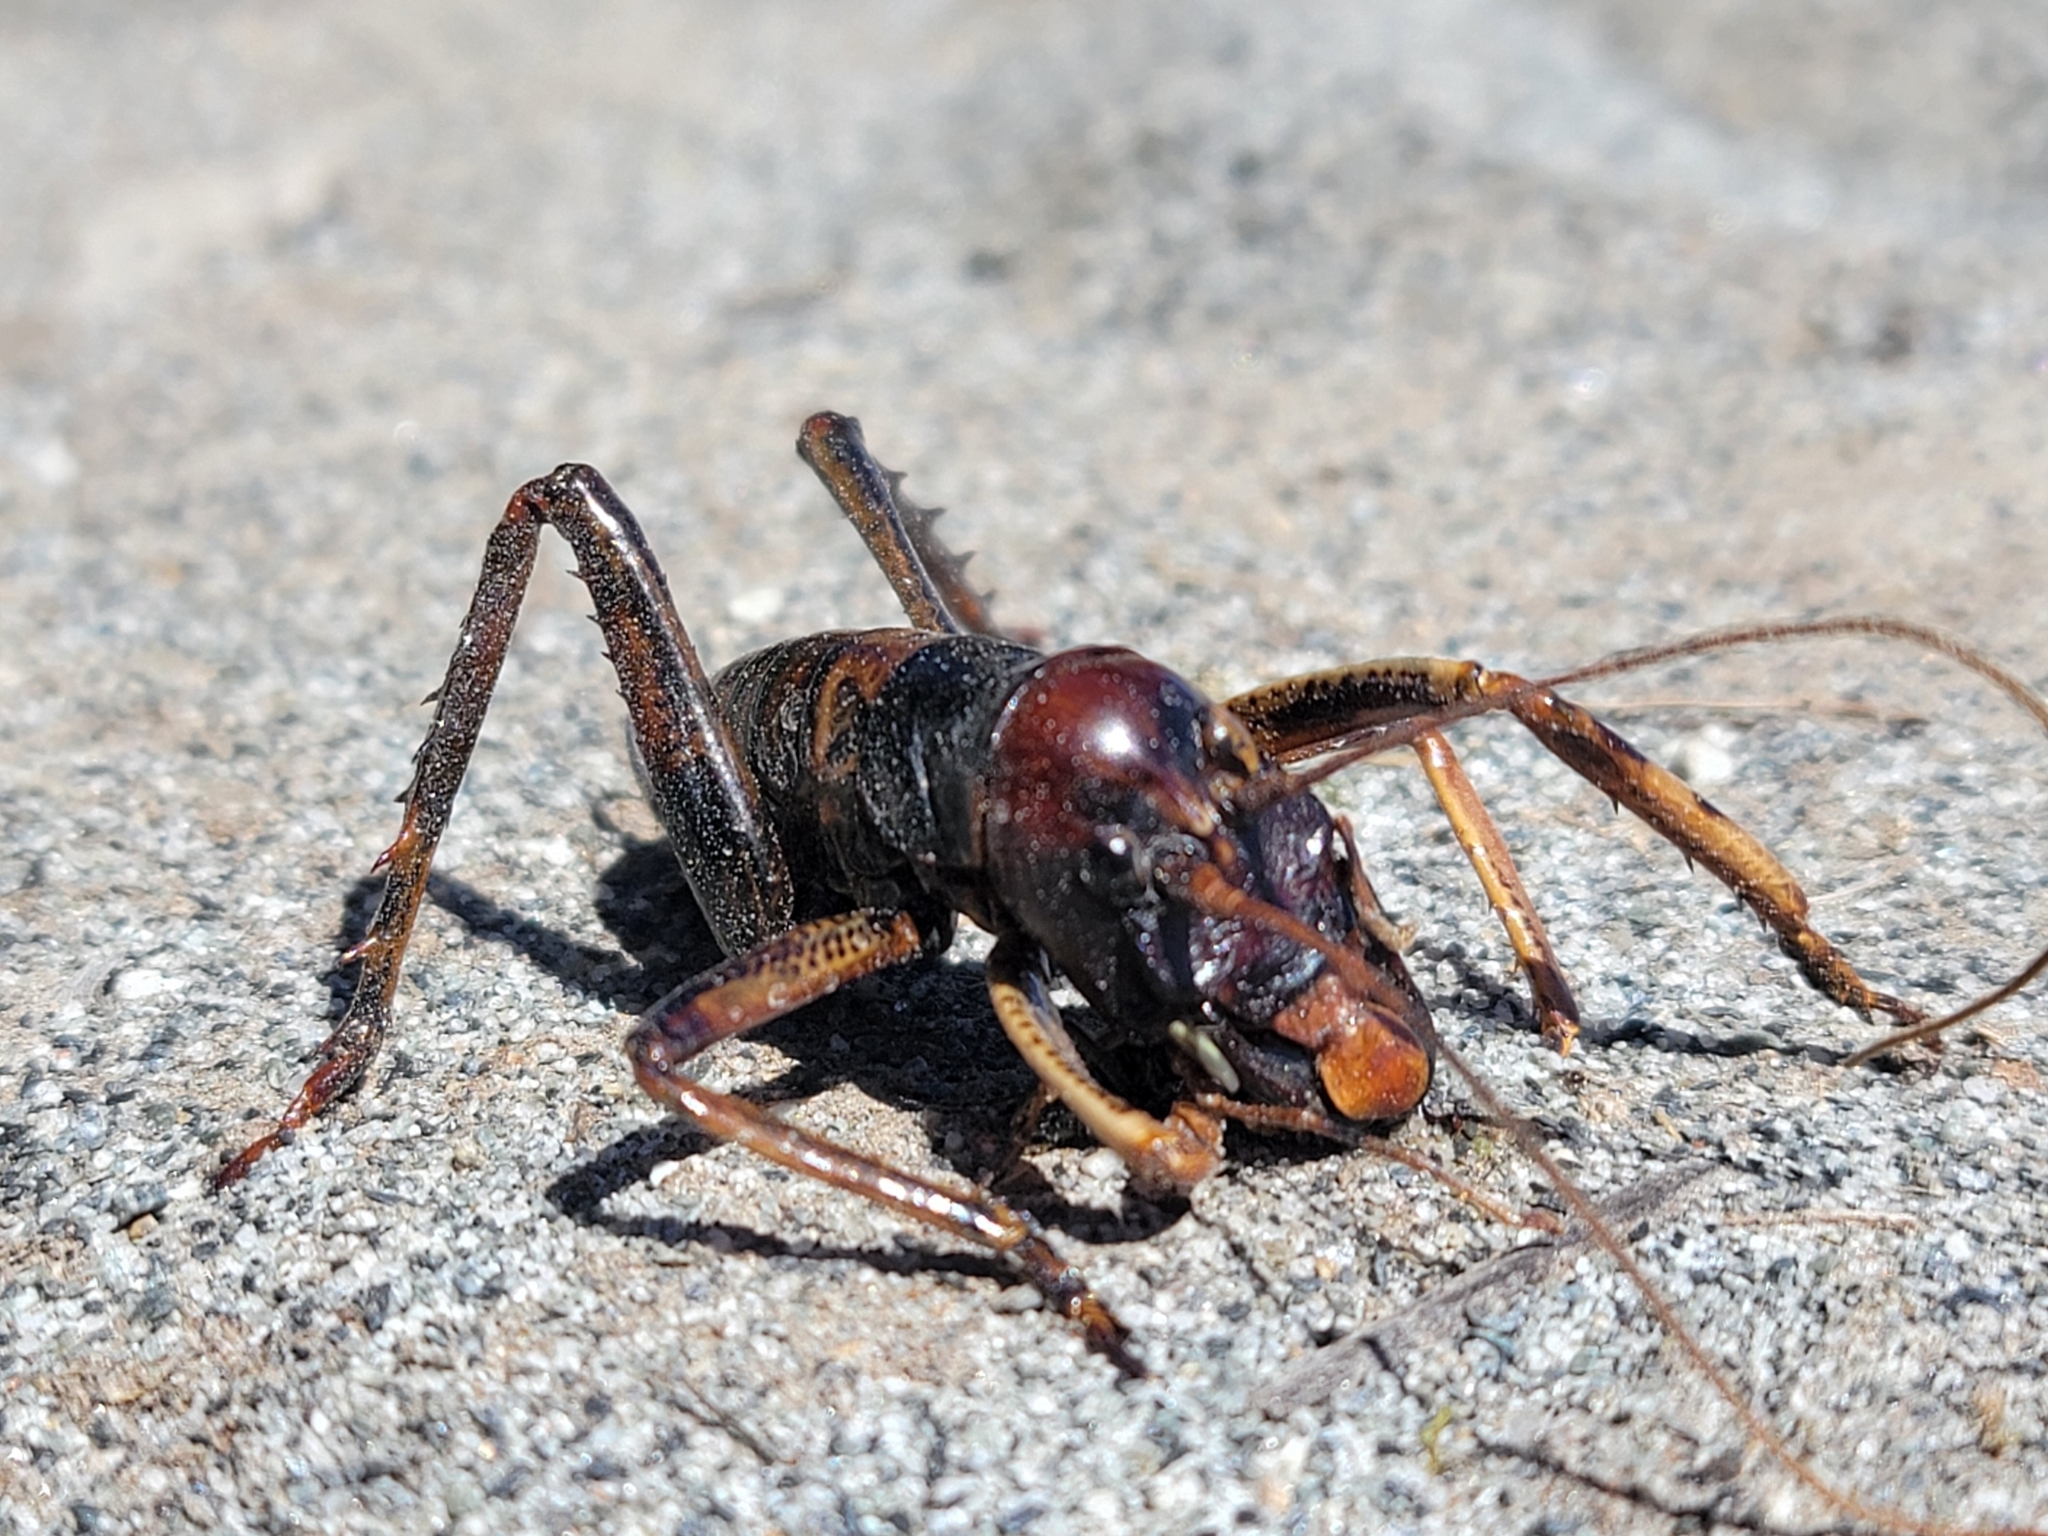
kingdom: Animalia
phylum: Arthropoda
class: Insecta
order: Orthoptera
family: Anostostomatidae
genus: Hemideina
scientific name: Hemideina crassidens
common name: Wellington tree weta
